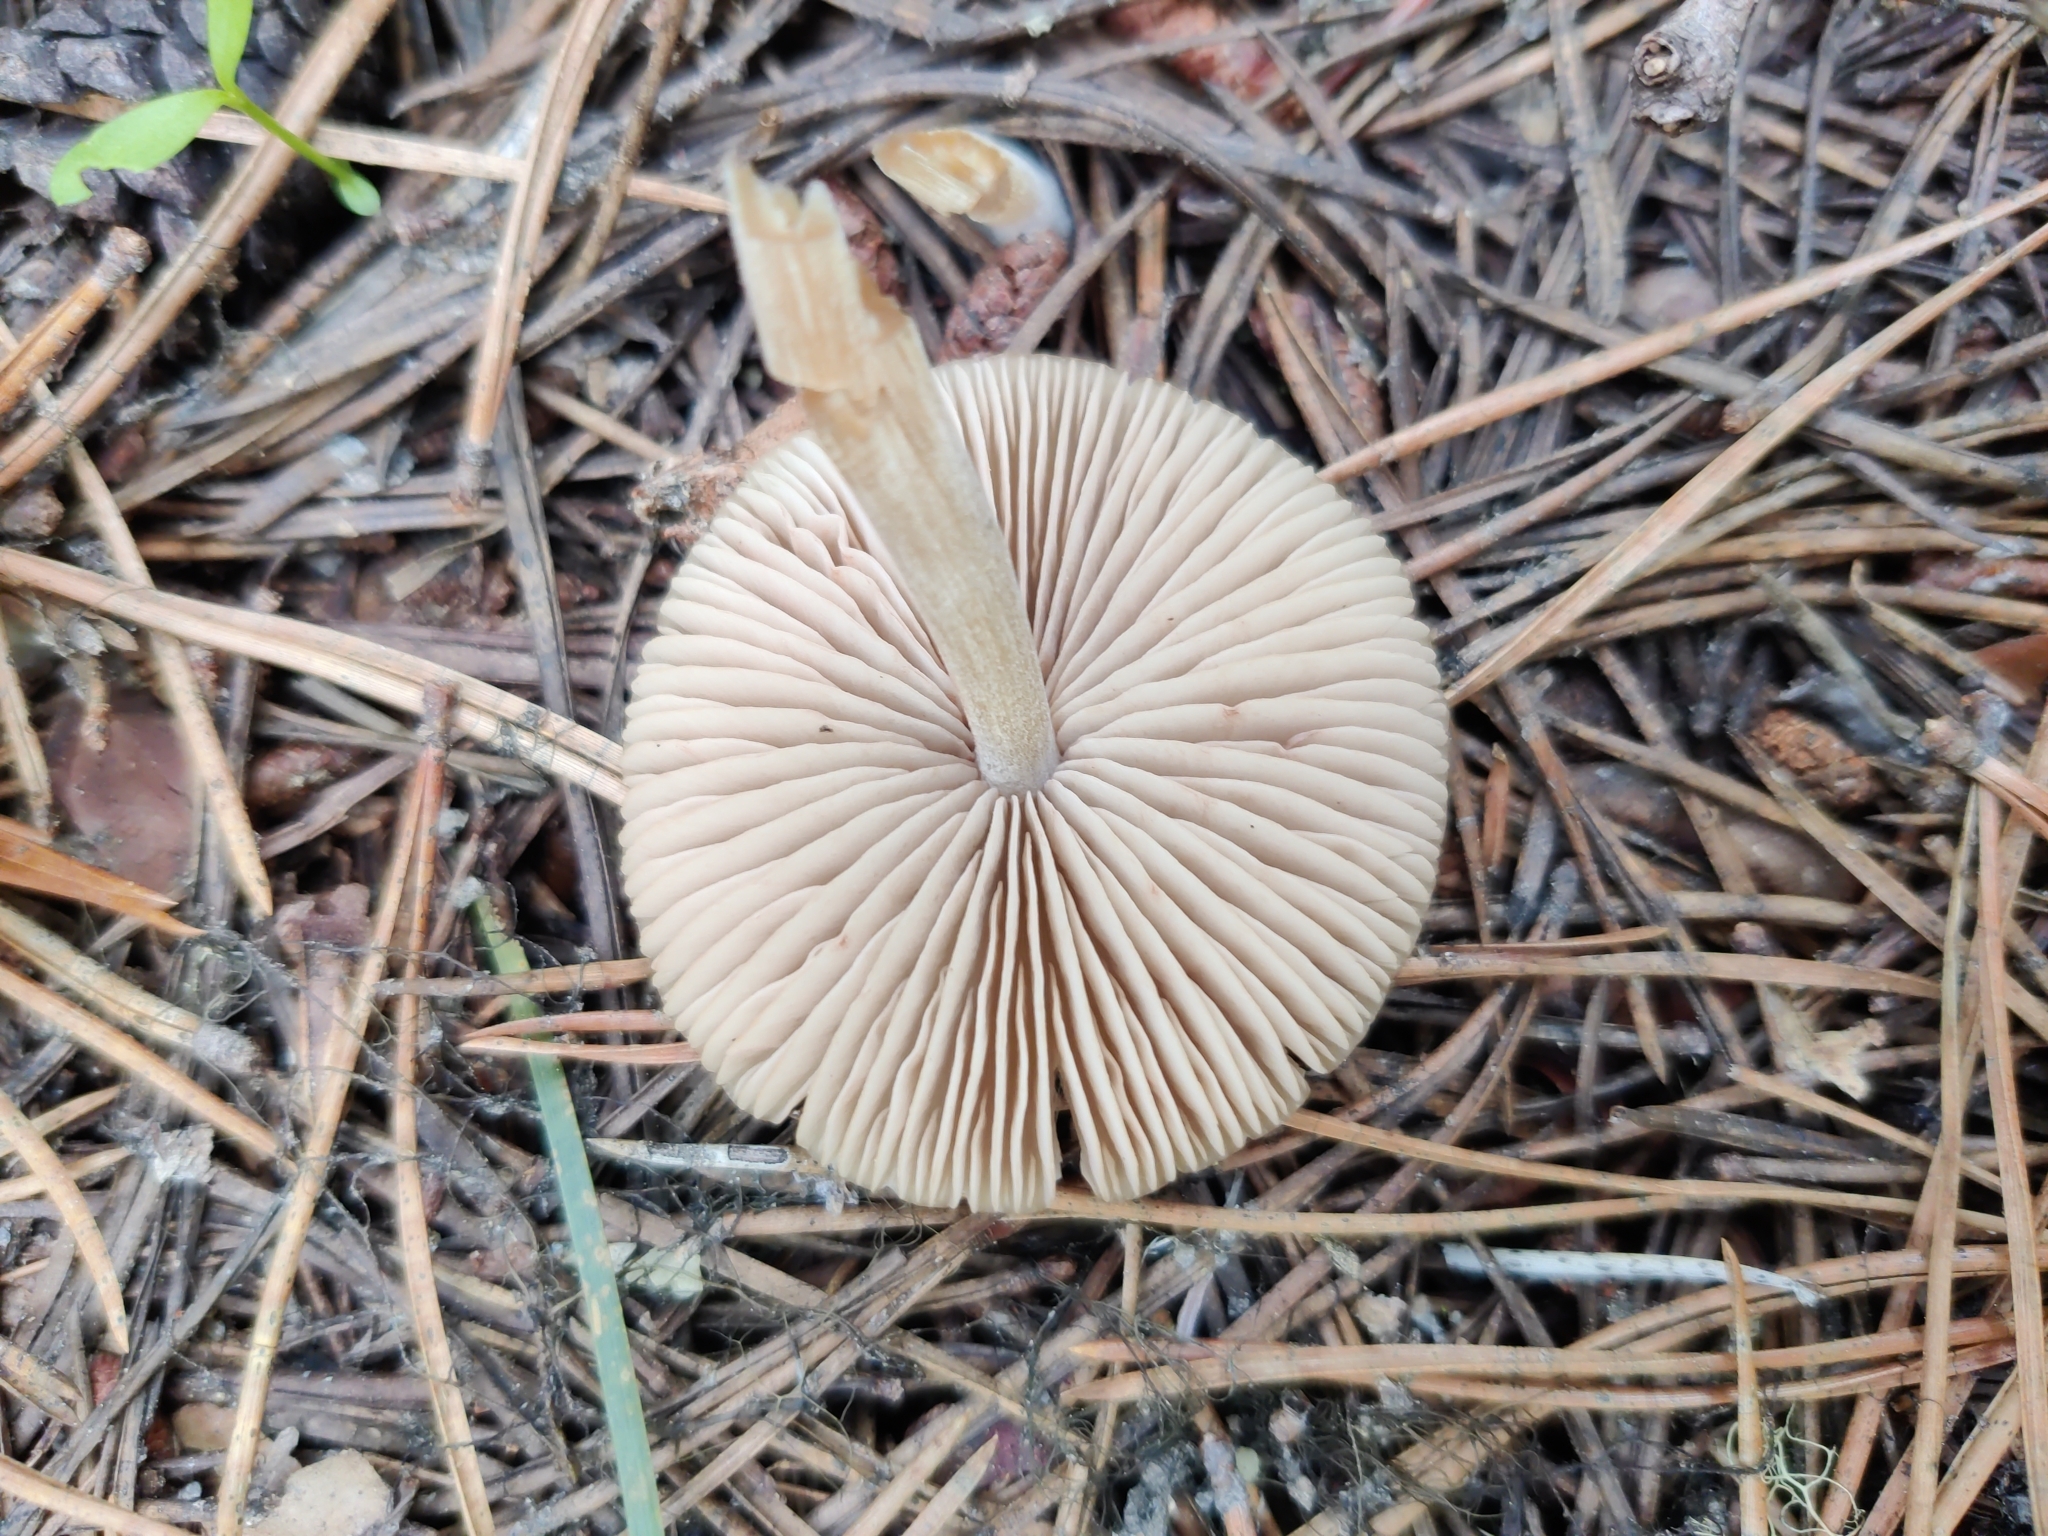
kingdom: Fungi
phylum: Basidiomycota
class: Agaricomycetes
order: Agaricales
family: Entolomataceae
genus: Entoloma
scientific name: Entoloma holoconiotum
